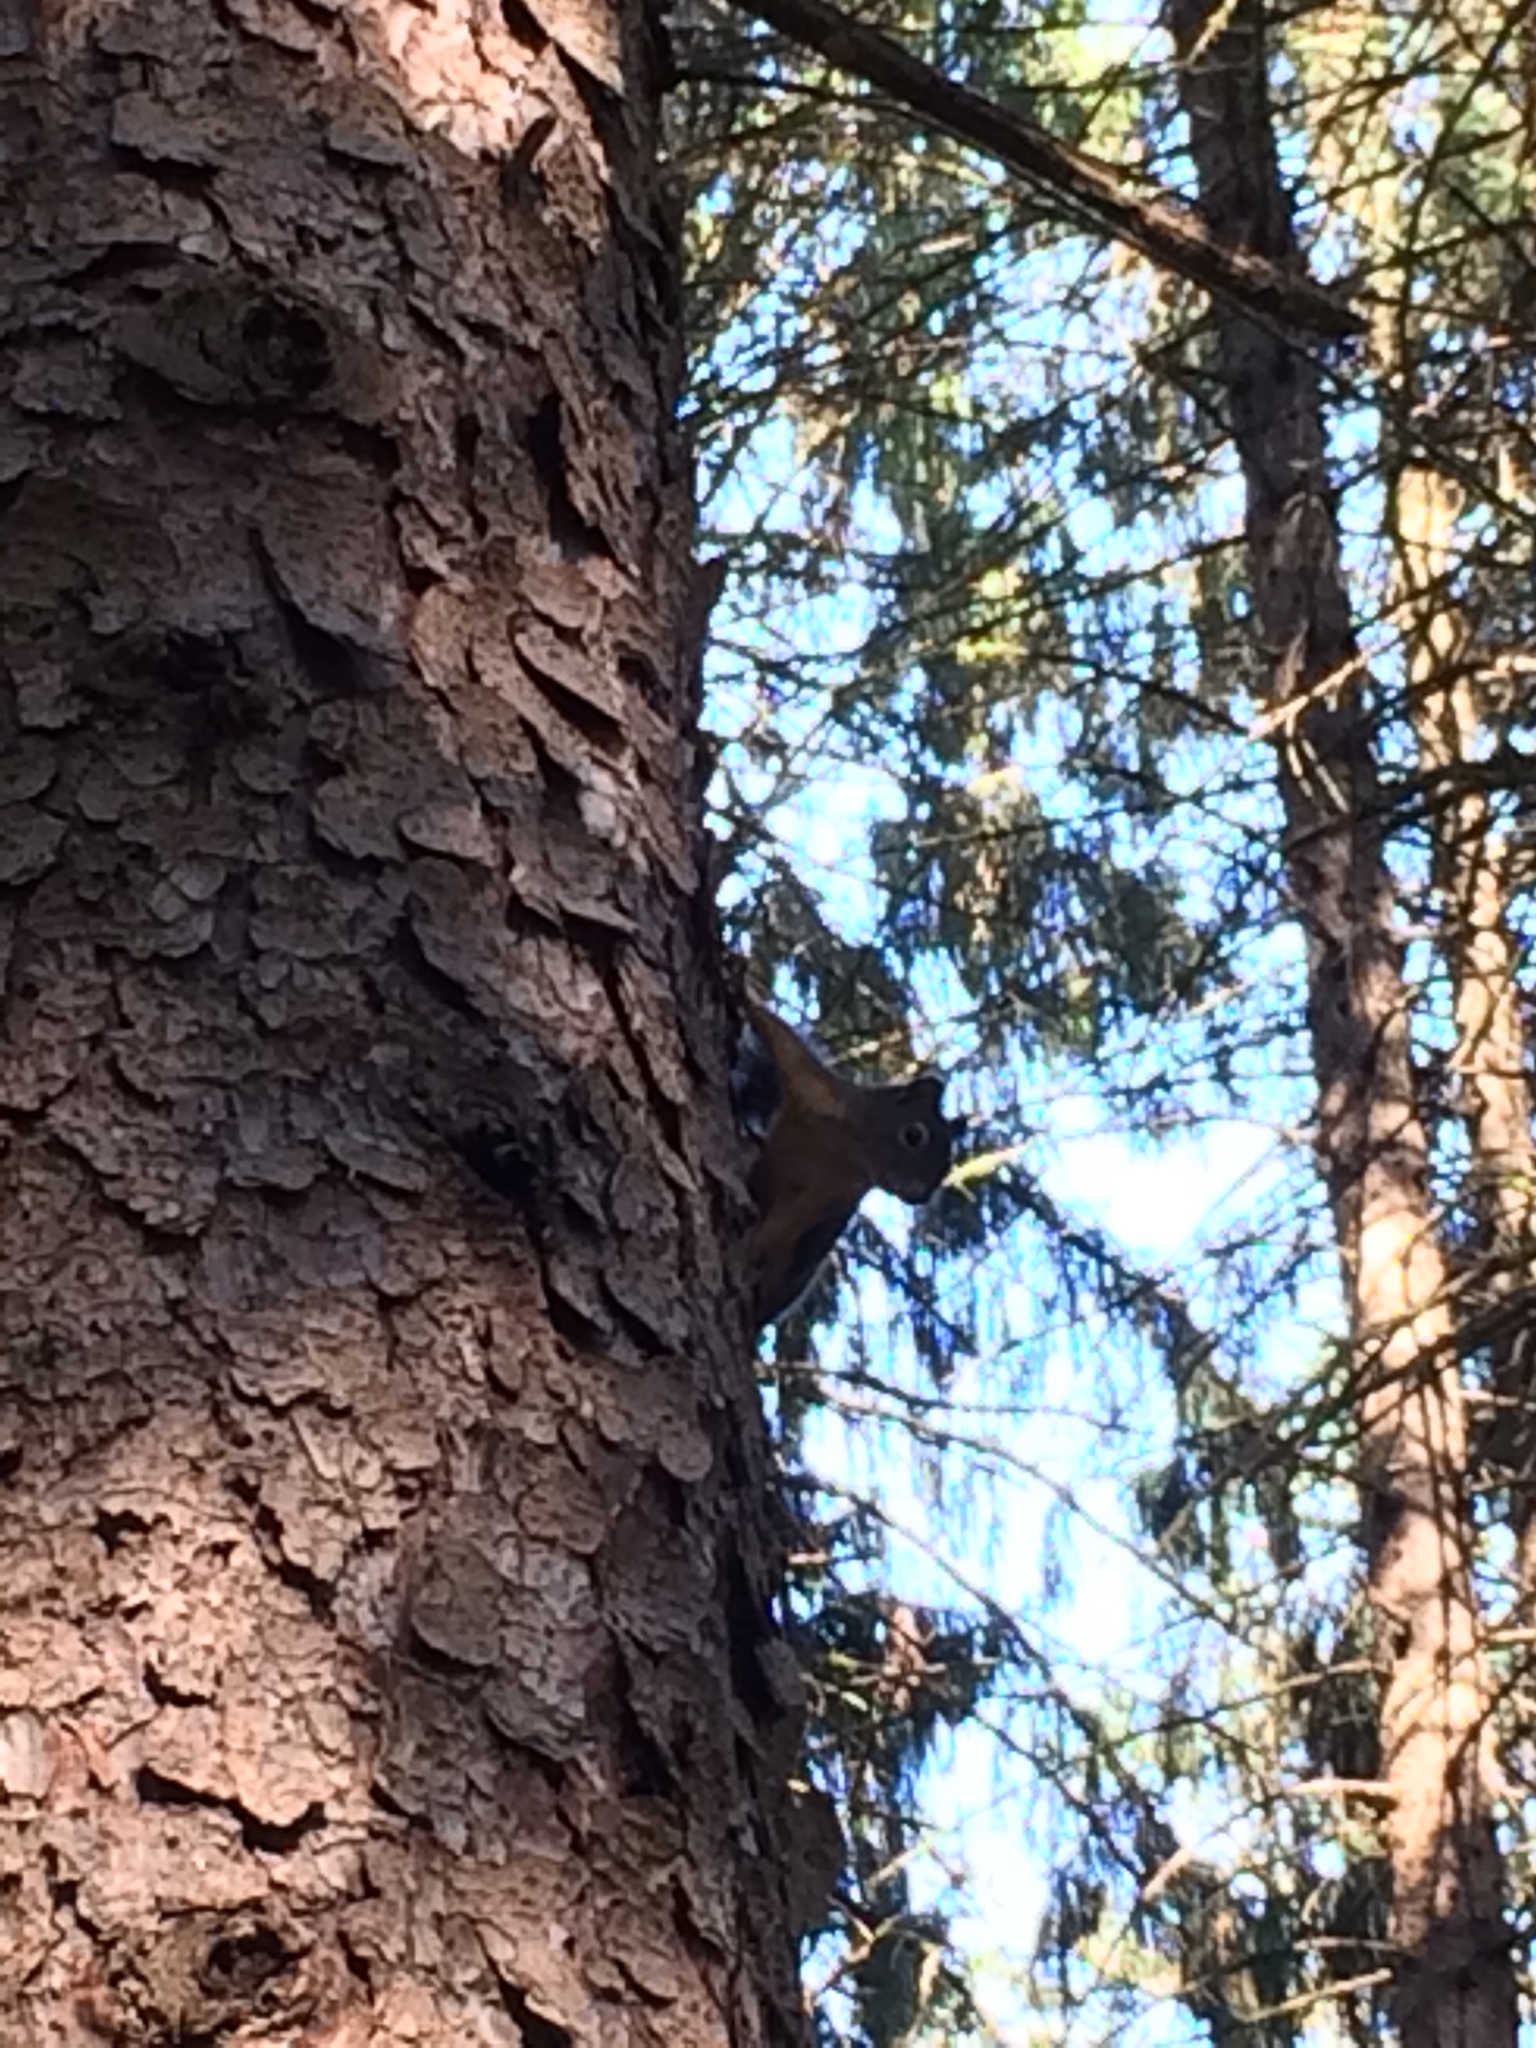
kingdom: Animalia
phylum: Chordata
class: Mammalia
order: Rodentia
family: Sciuridae
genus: Tamiasciurus
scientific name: Tamiasciurus douglasii
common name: Douglas's squirrel
